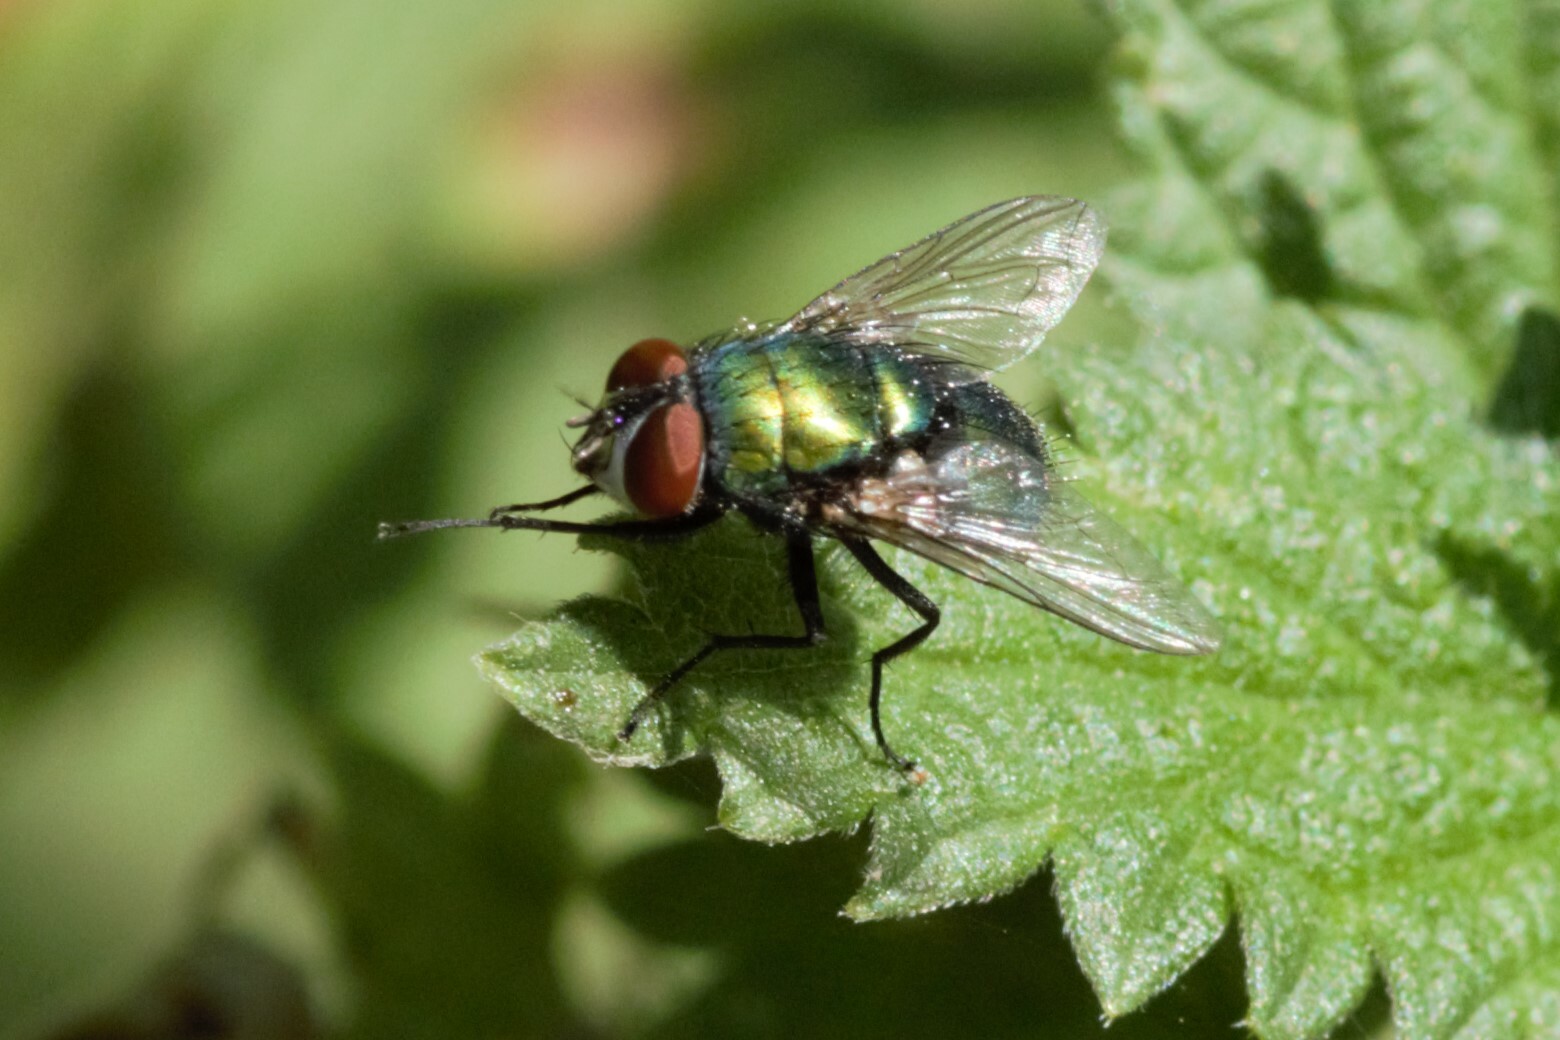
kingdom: Animalia
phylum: Arthropoda
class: Insecta
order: Diptera
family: Calliphoridae
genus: Lucilia
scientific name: Lucilia
